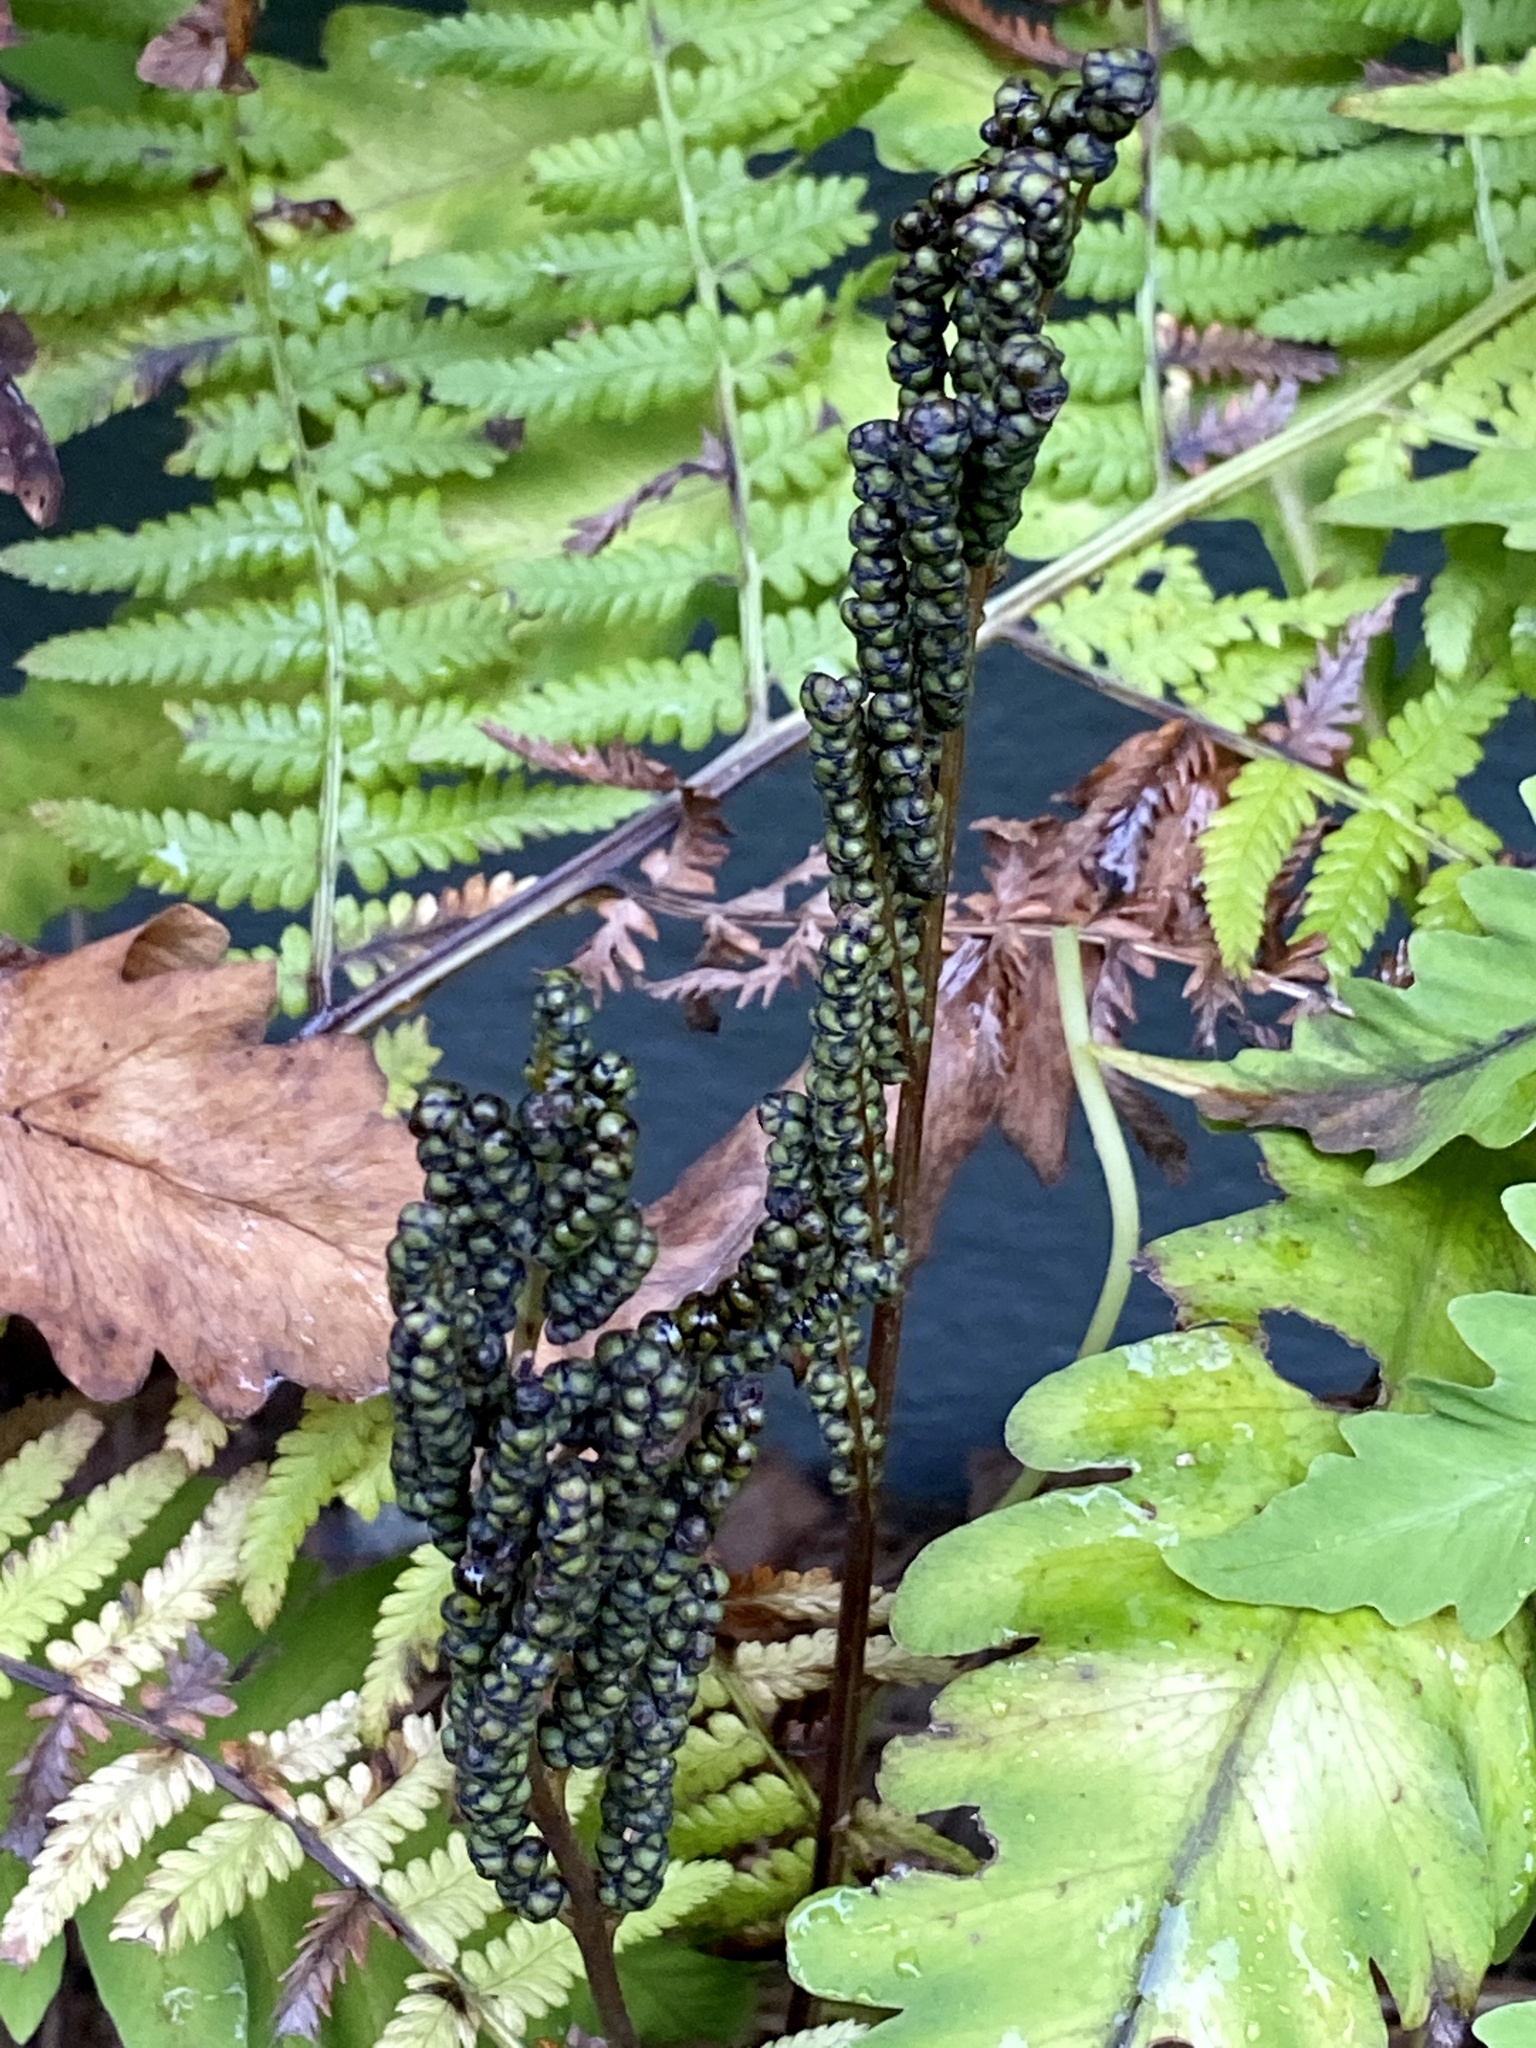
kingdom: Plantae
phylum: Tracheophyta
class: Polypodiopsida
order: Polypodiales
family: Onocleaceae
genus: Onoclea
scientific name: Onoclea sensibilis
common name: Sensitive fern
